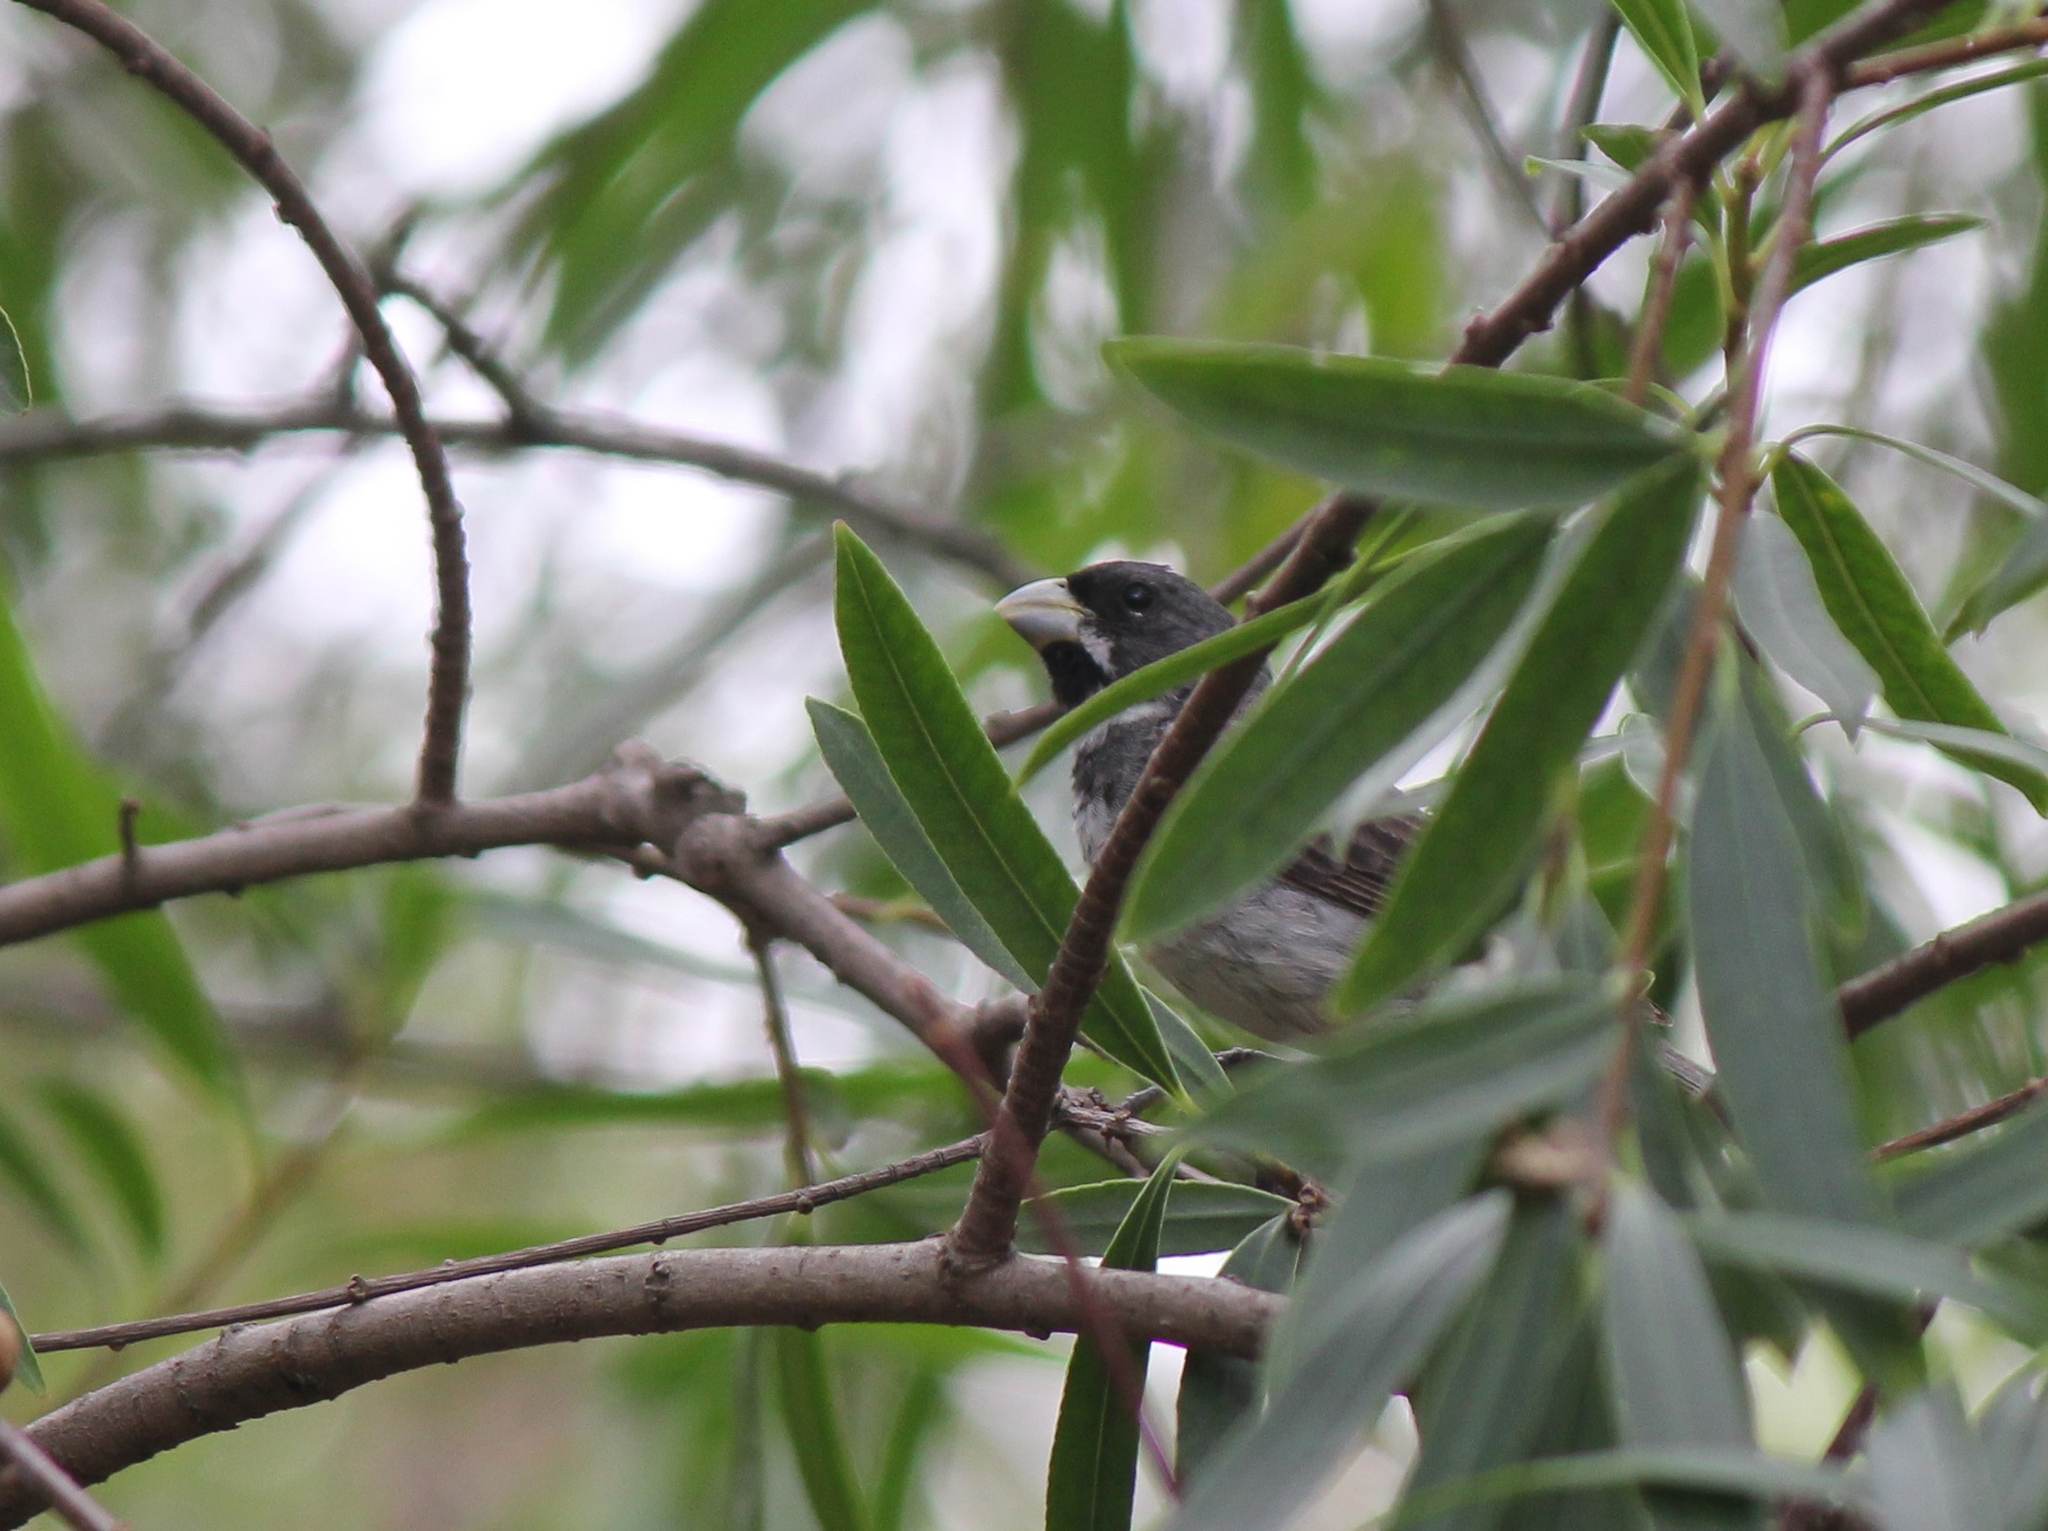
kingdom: Animalia
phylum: Chordata
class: Aves
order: Passeriformes
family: Thraupidae
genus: Sporophila
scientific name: Sporophila caerulescens
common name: Double-collared seedeater
